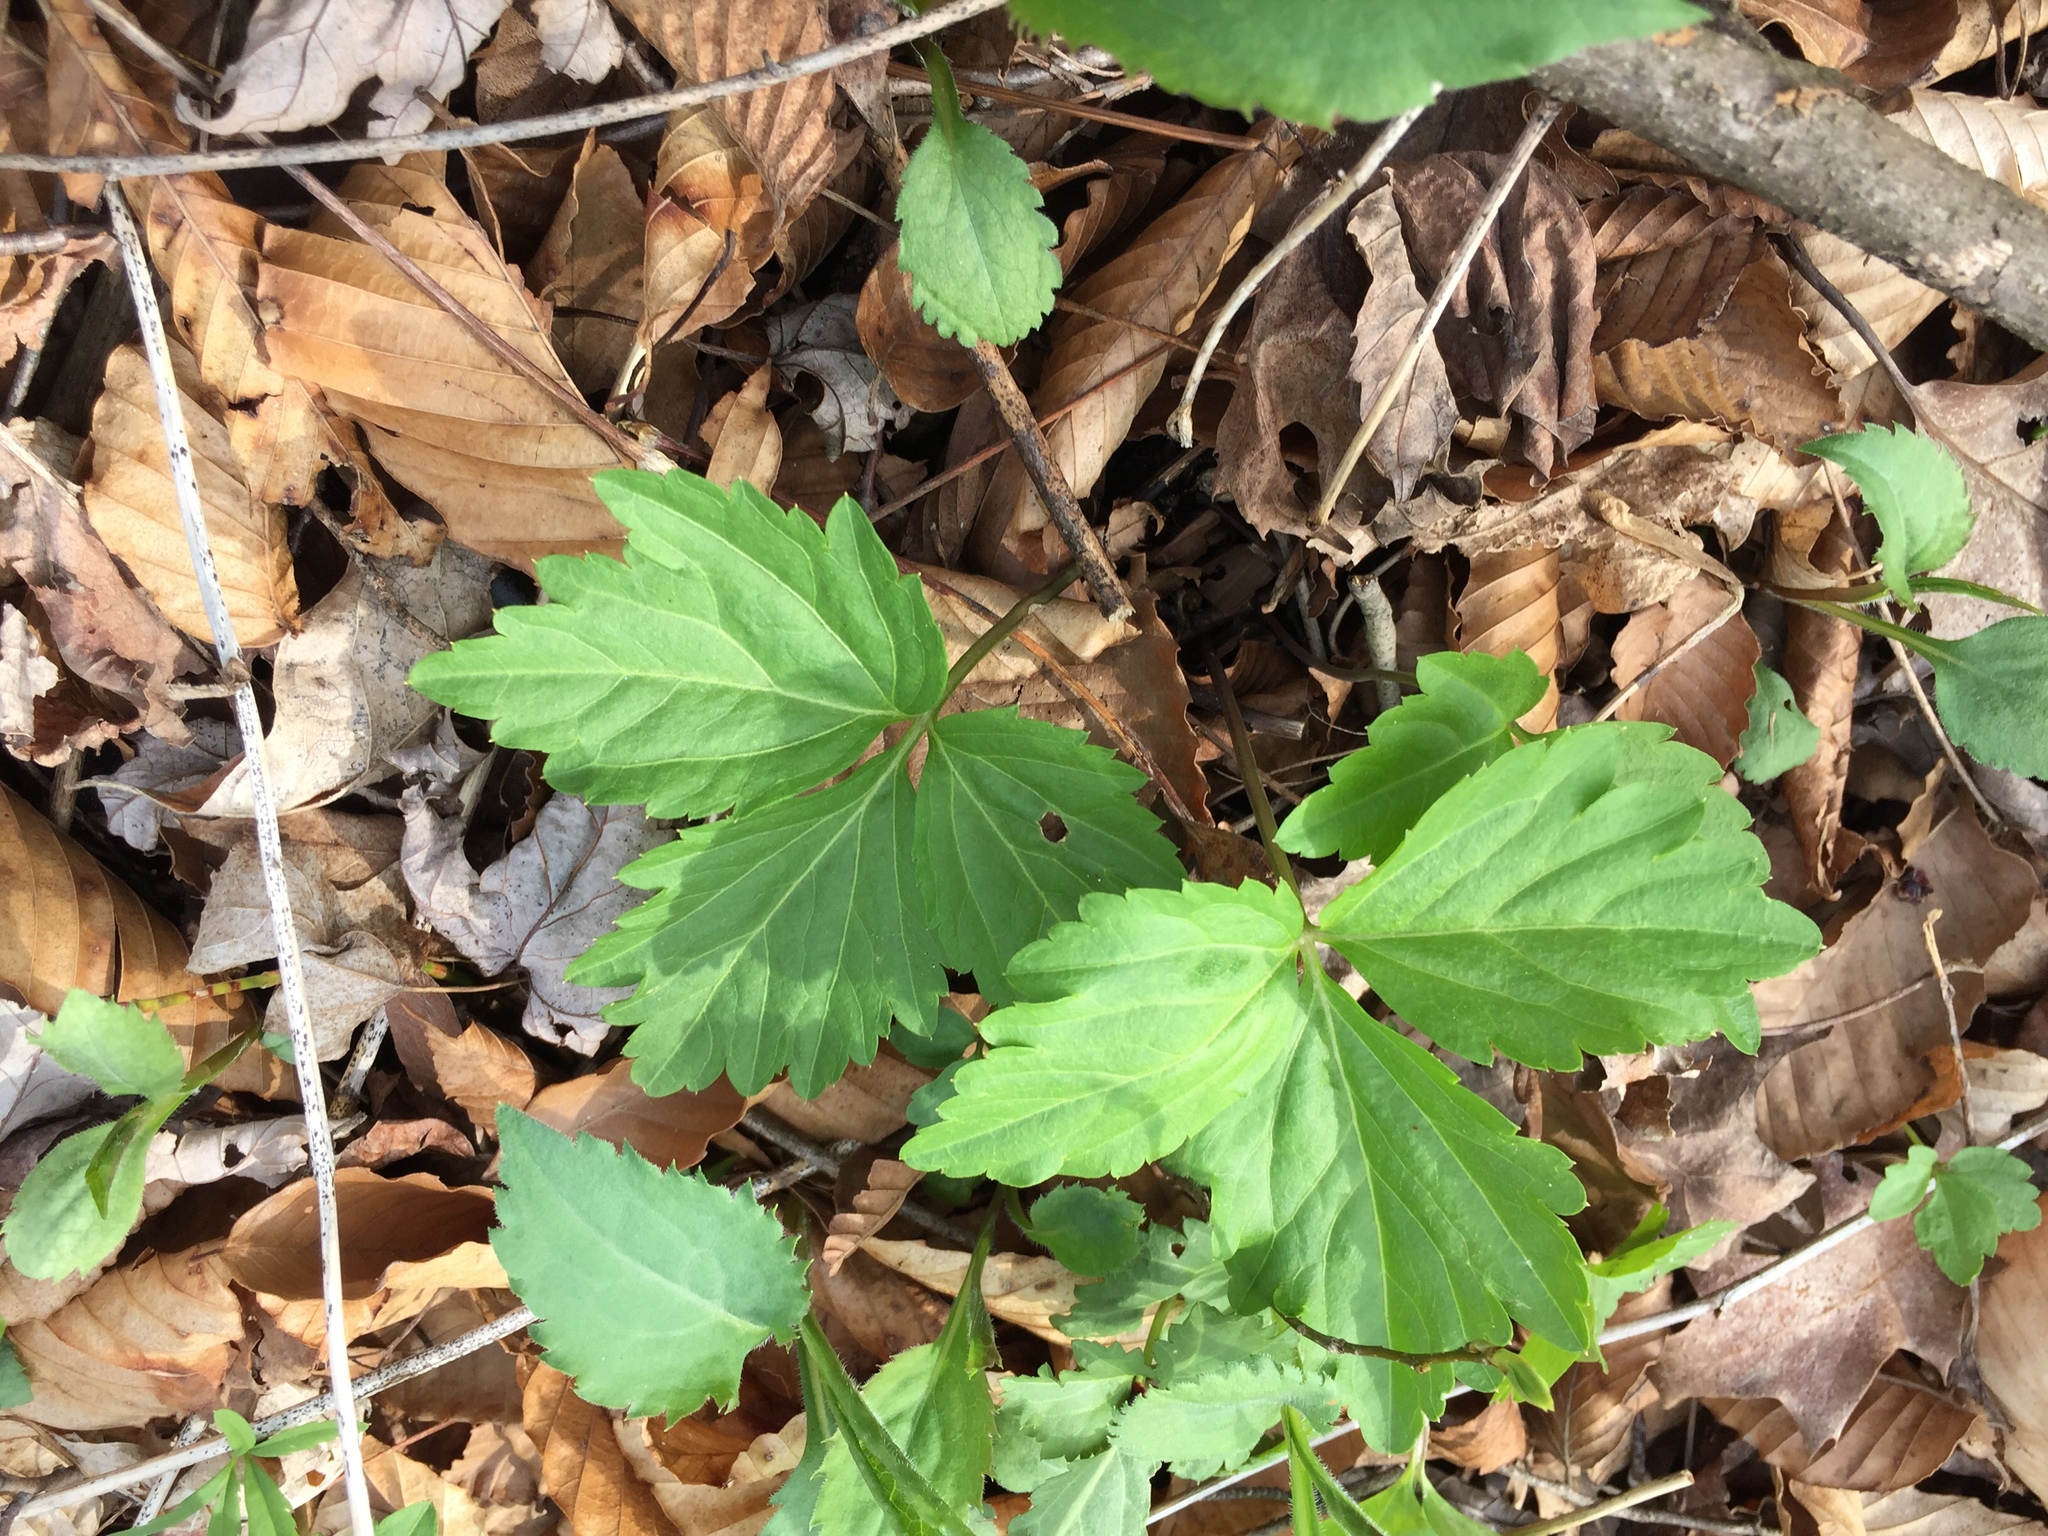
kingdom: Plantae
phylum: Tracheophyta
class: Magnoliopsida
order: Brassicales
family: Brassicaceae
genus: Cardamine
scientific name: Cardamine diphylla
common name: Broad-leaved toothwort
